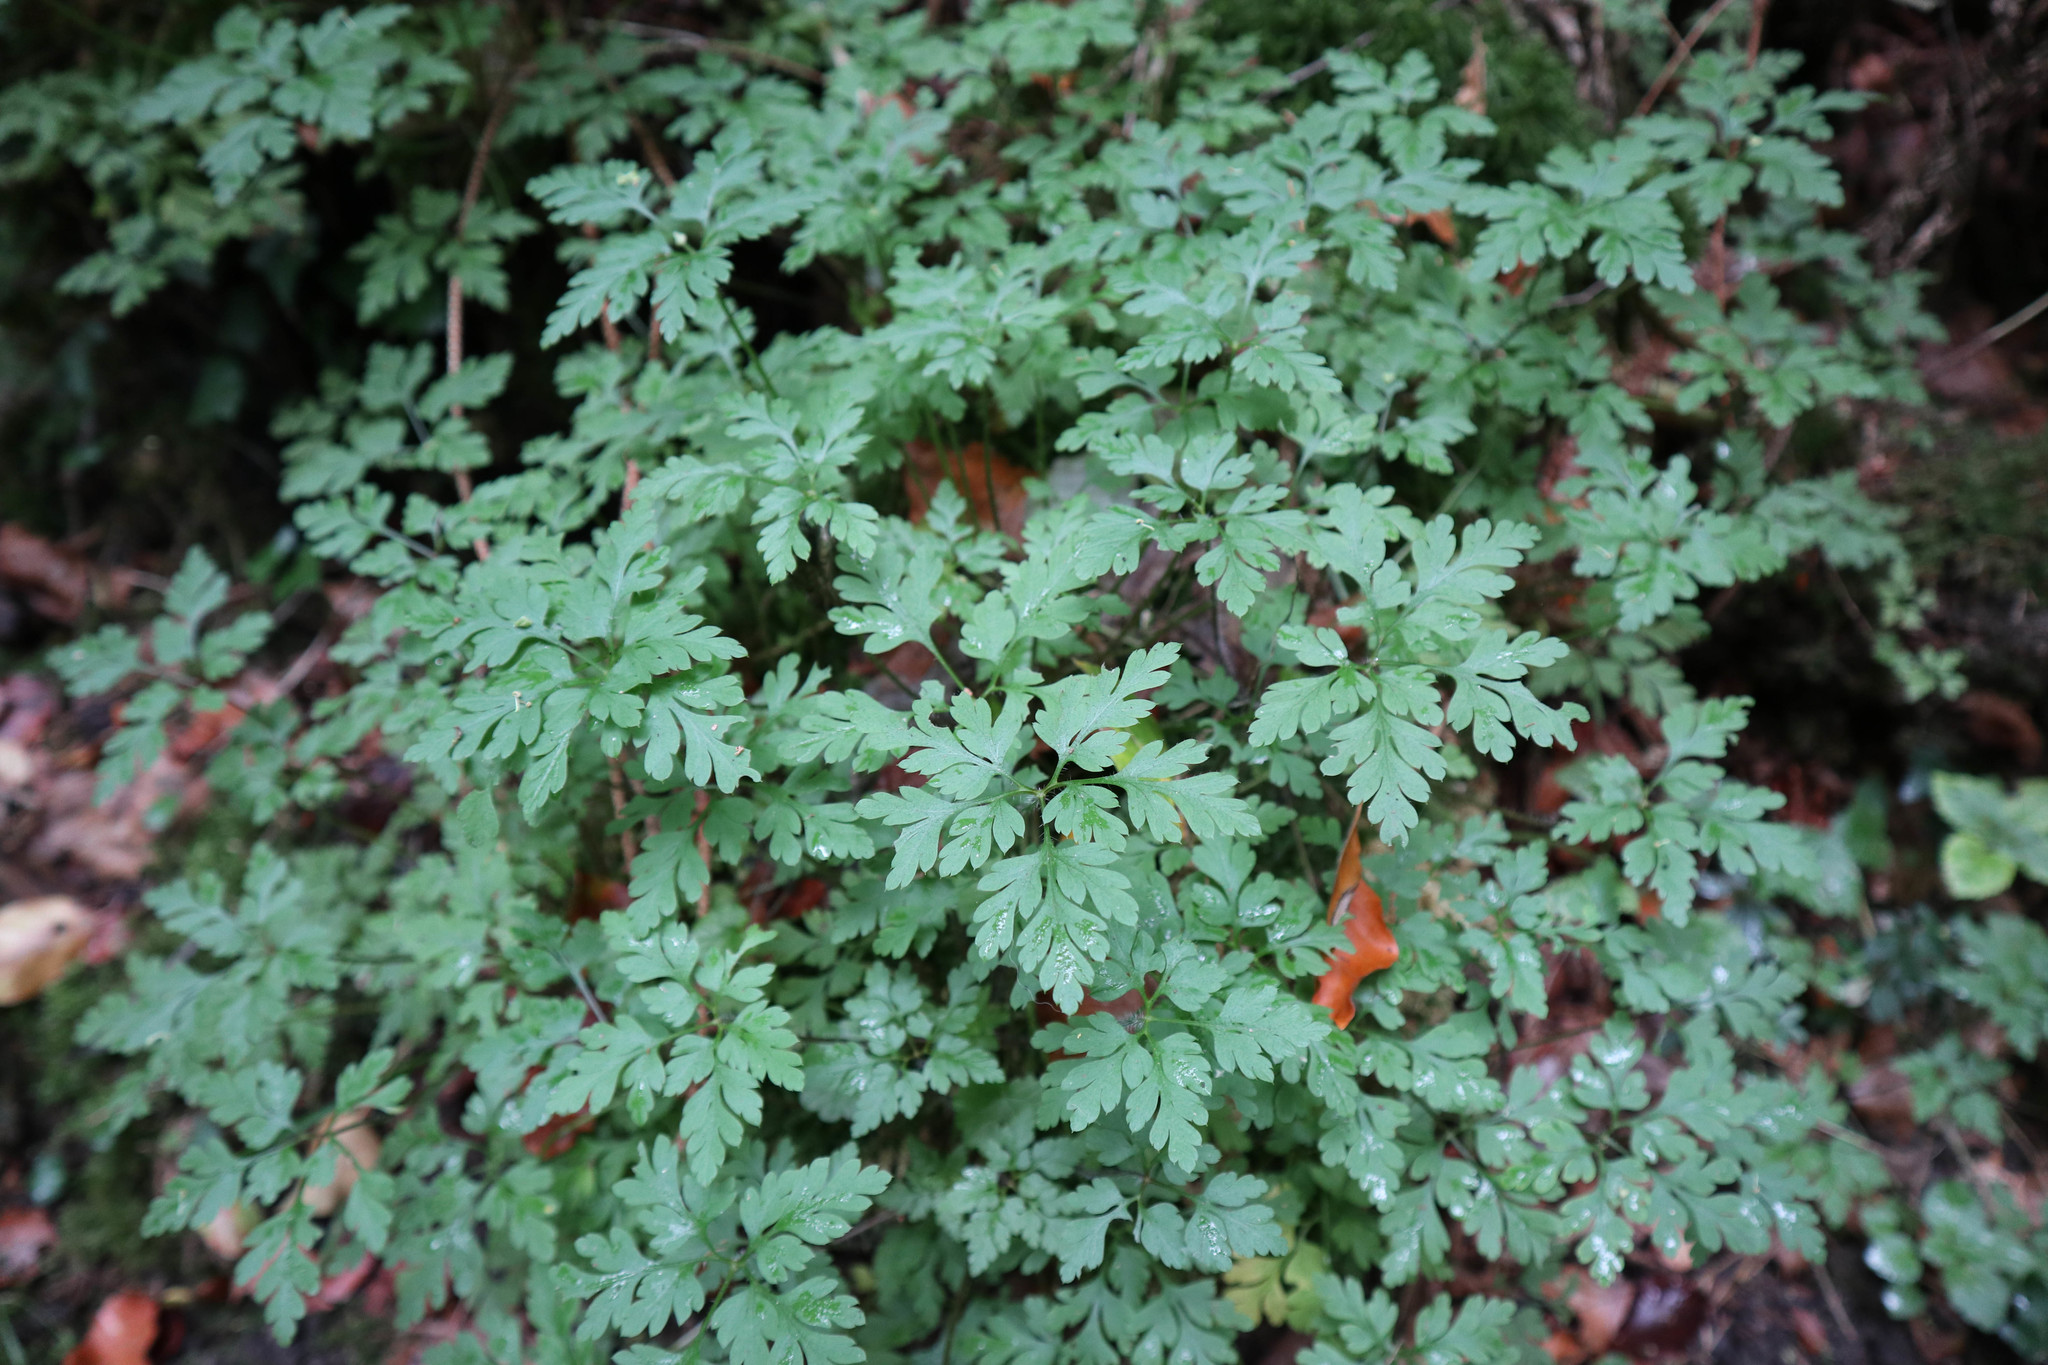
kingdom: Plantae
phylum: Tracheophyta
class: Magnoliopsida
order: Geraniales
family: Geraniaceae
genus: Geranium
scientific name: Geranium robertianum
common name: Herb-robert
